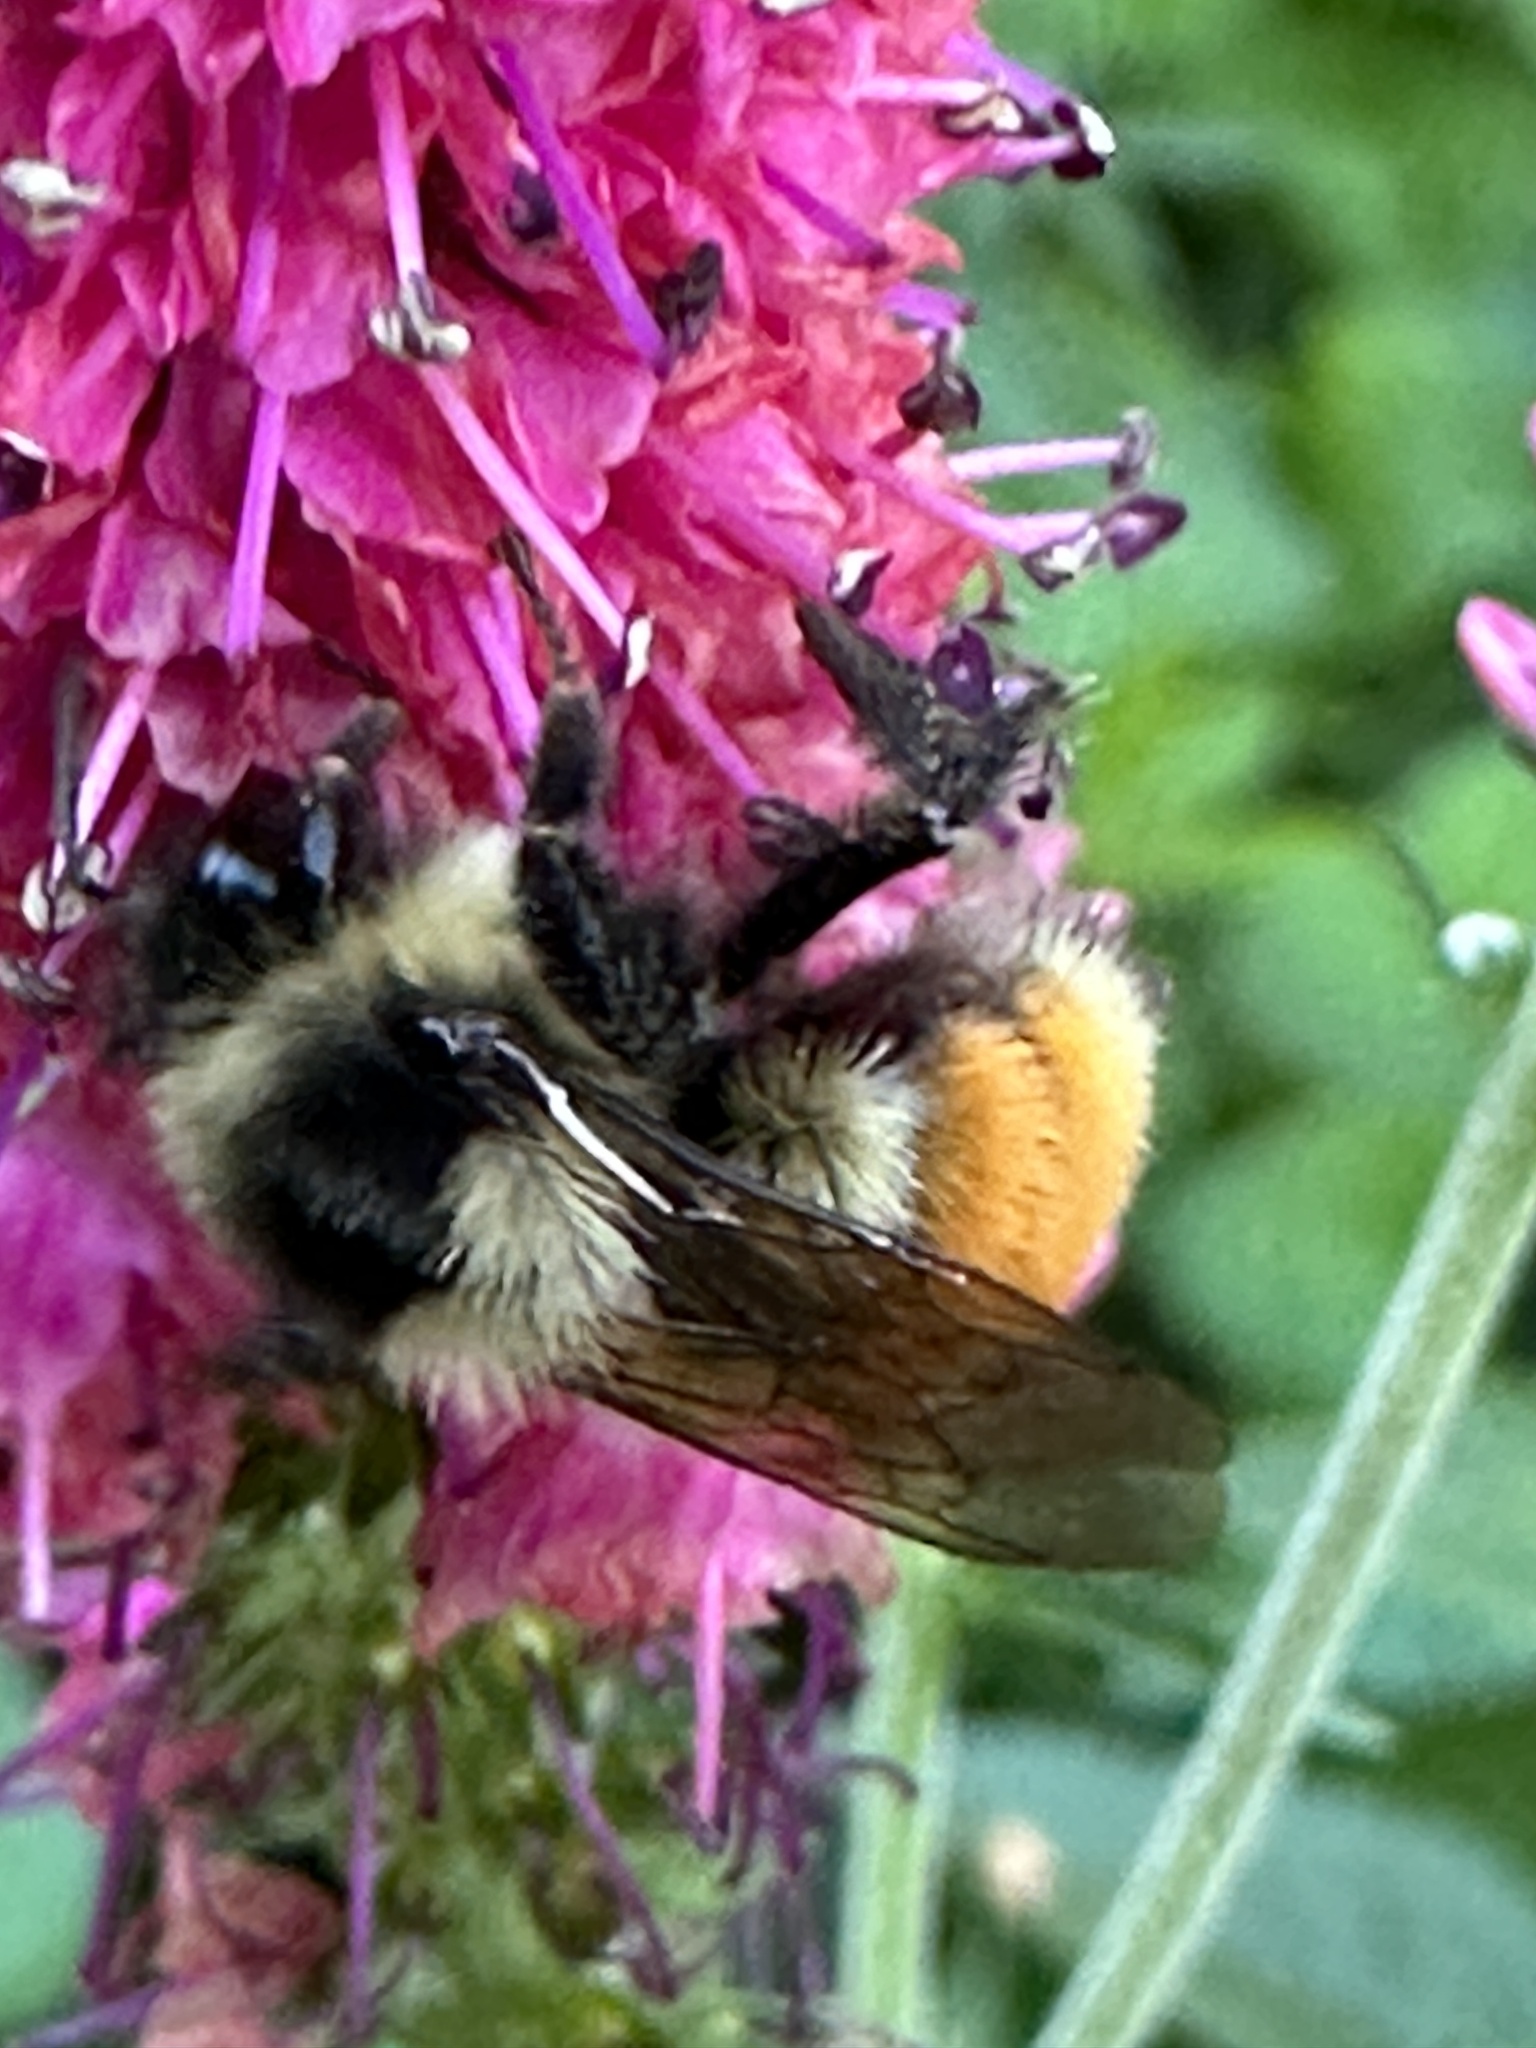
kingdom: Animalia
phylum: Arthropoda
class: Insecta
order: Hymenoptera
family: Apidae
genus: Bombus
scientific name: Bombus ternarius
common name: Tri-colored bumble bee
